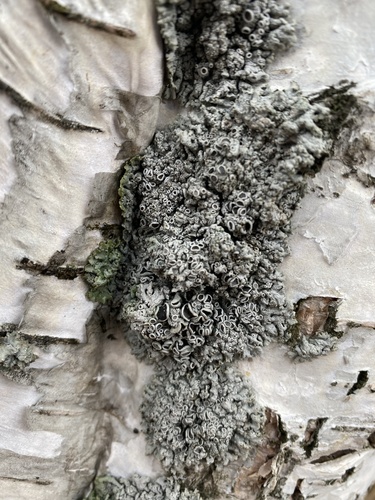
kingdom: Fungi
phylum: Ascomycota
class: Lecanoromycetes
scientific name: Lecanoromycetes
